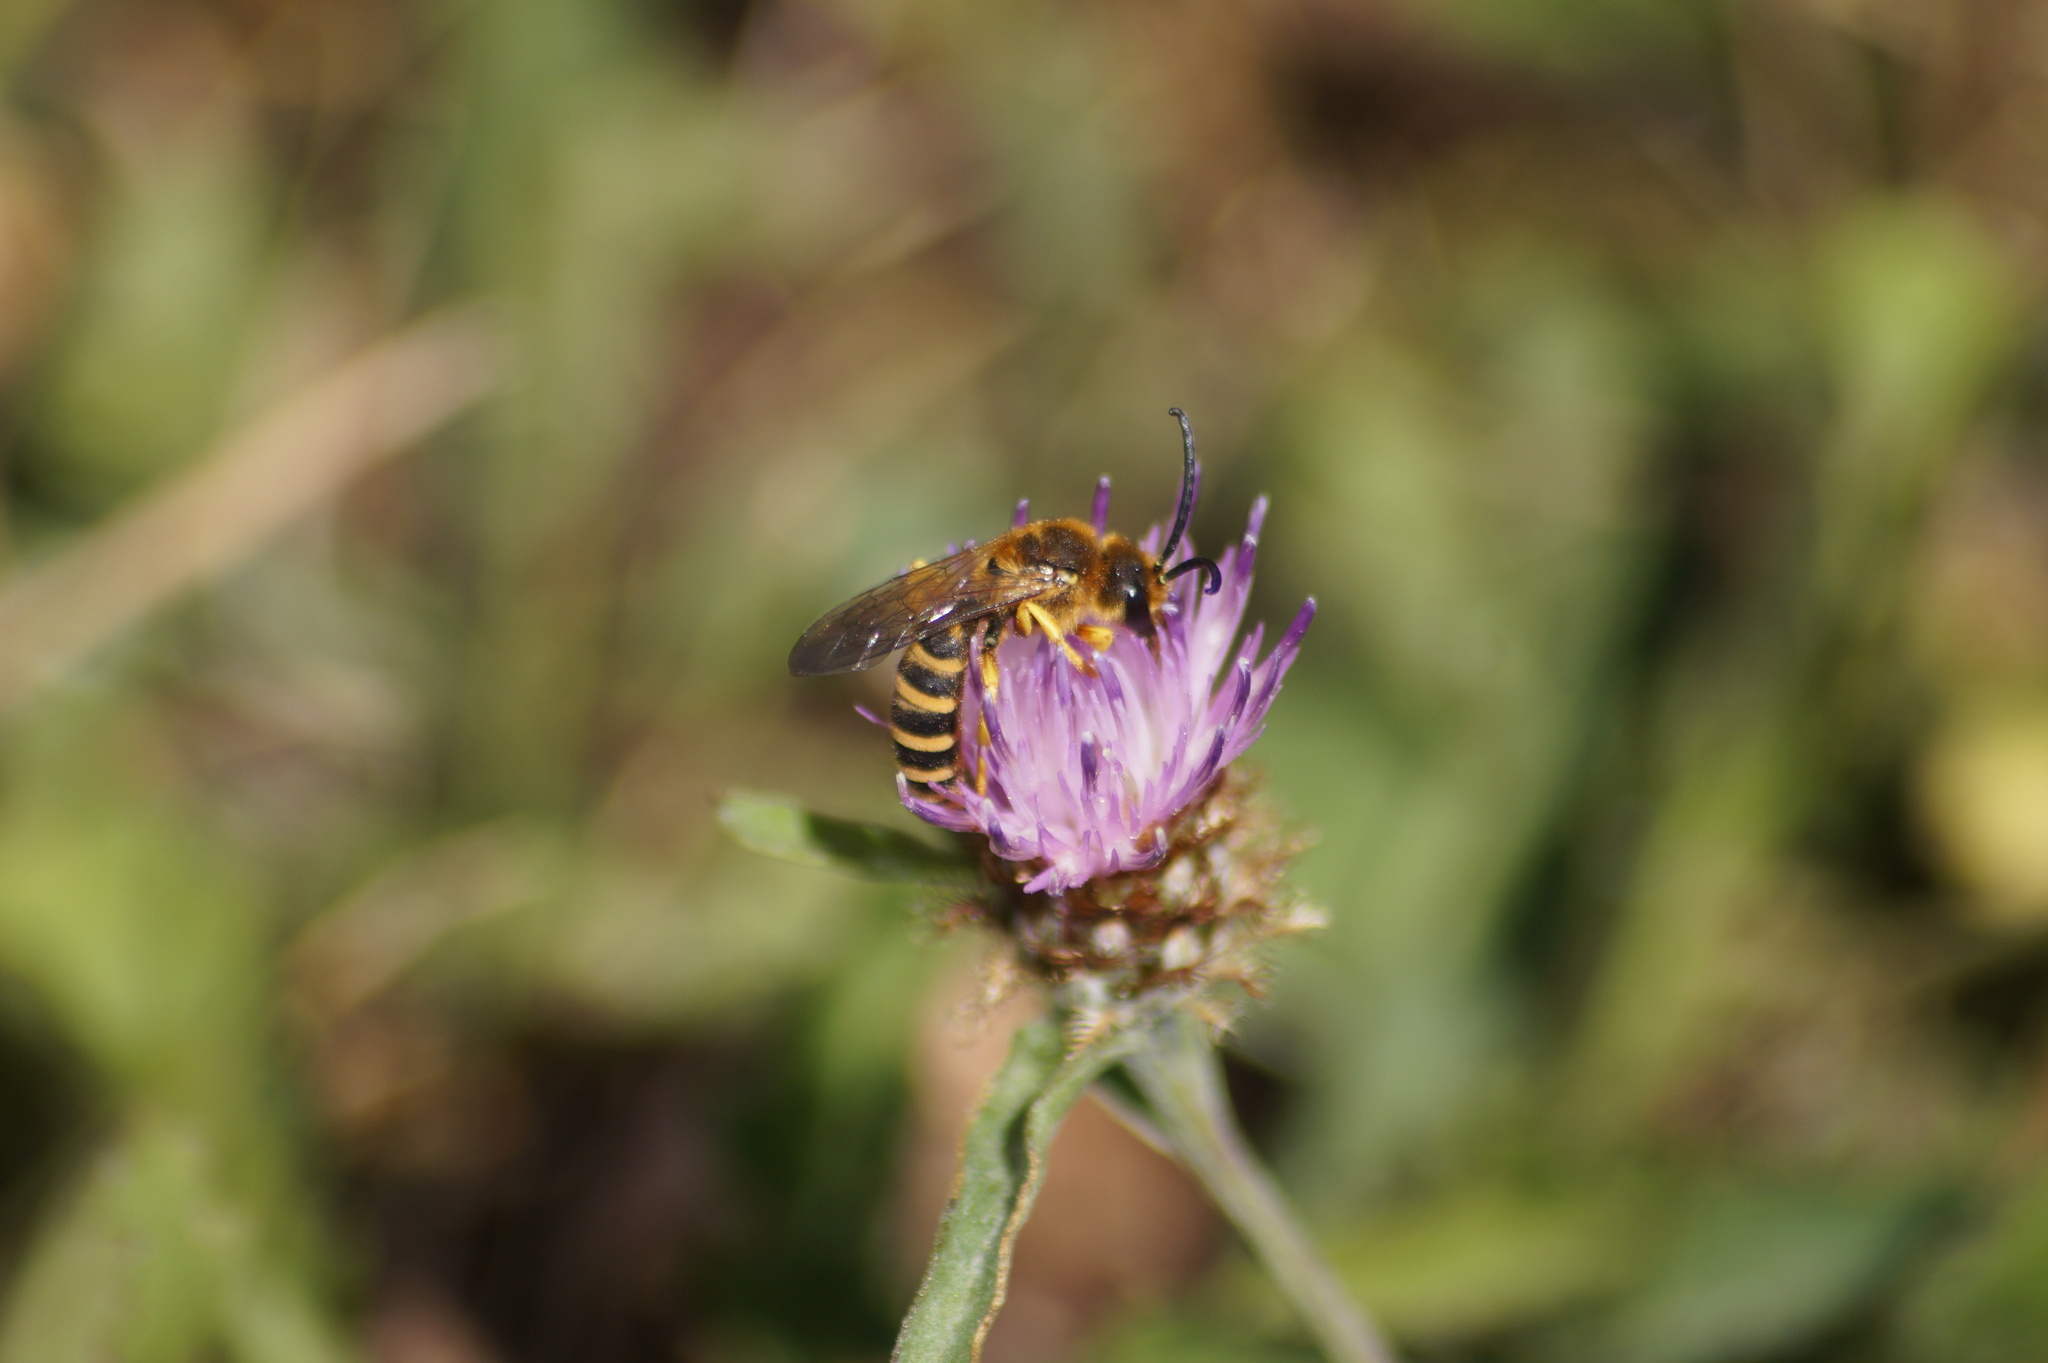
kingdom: Animalia
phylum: Arthropoda
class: Insecta
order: Hymenoptera
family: Halictidae
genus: Halictus
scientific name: Halictus scabiosae
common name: Great banded furrow bee
